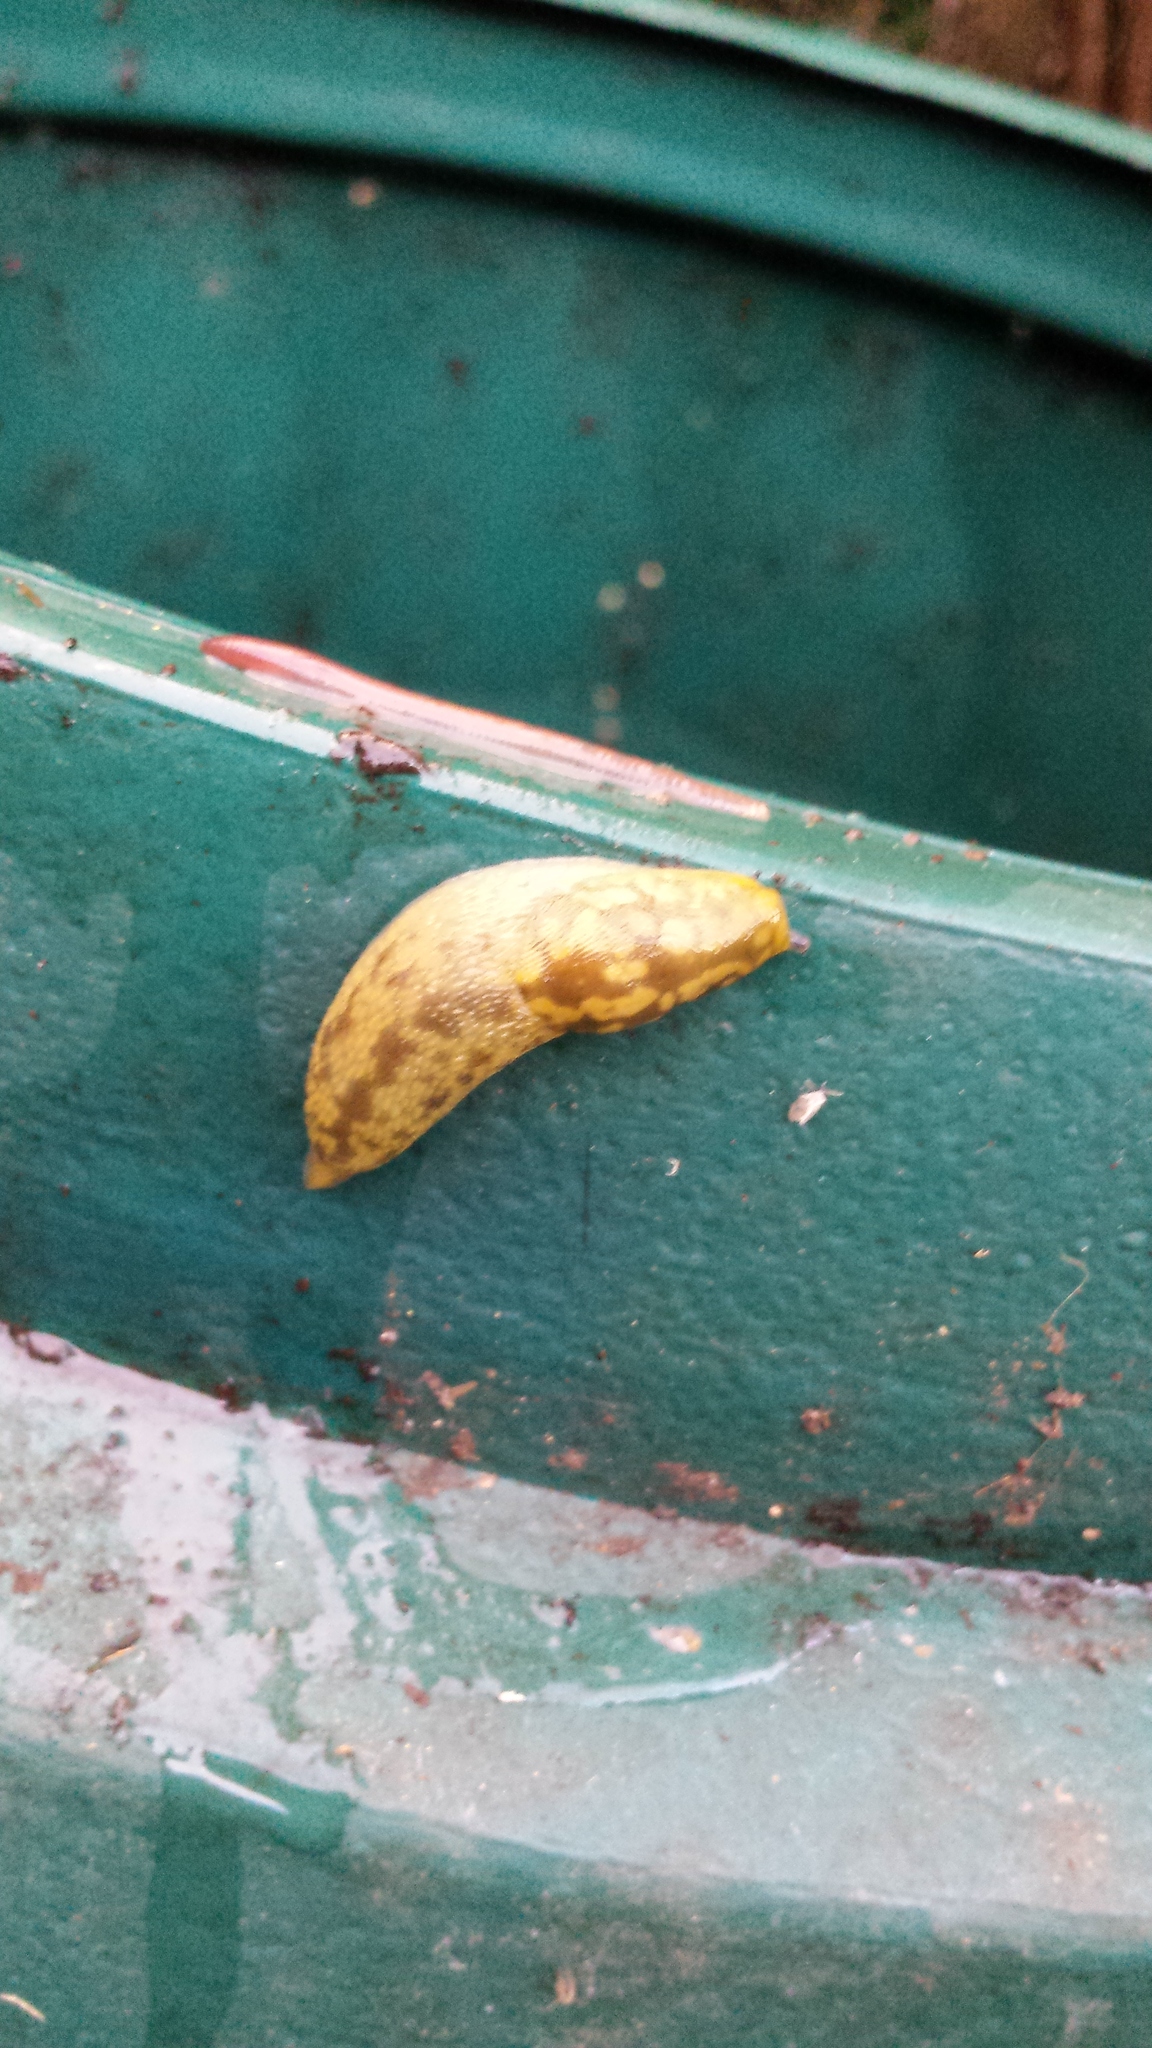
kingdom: Animalia
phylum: Mollusca
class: Gastropoda
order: Stylommatophora
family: Limacidae
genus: Limacus
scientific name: Limacus maculatus
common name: Irish yellow slug
